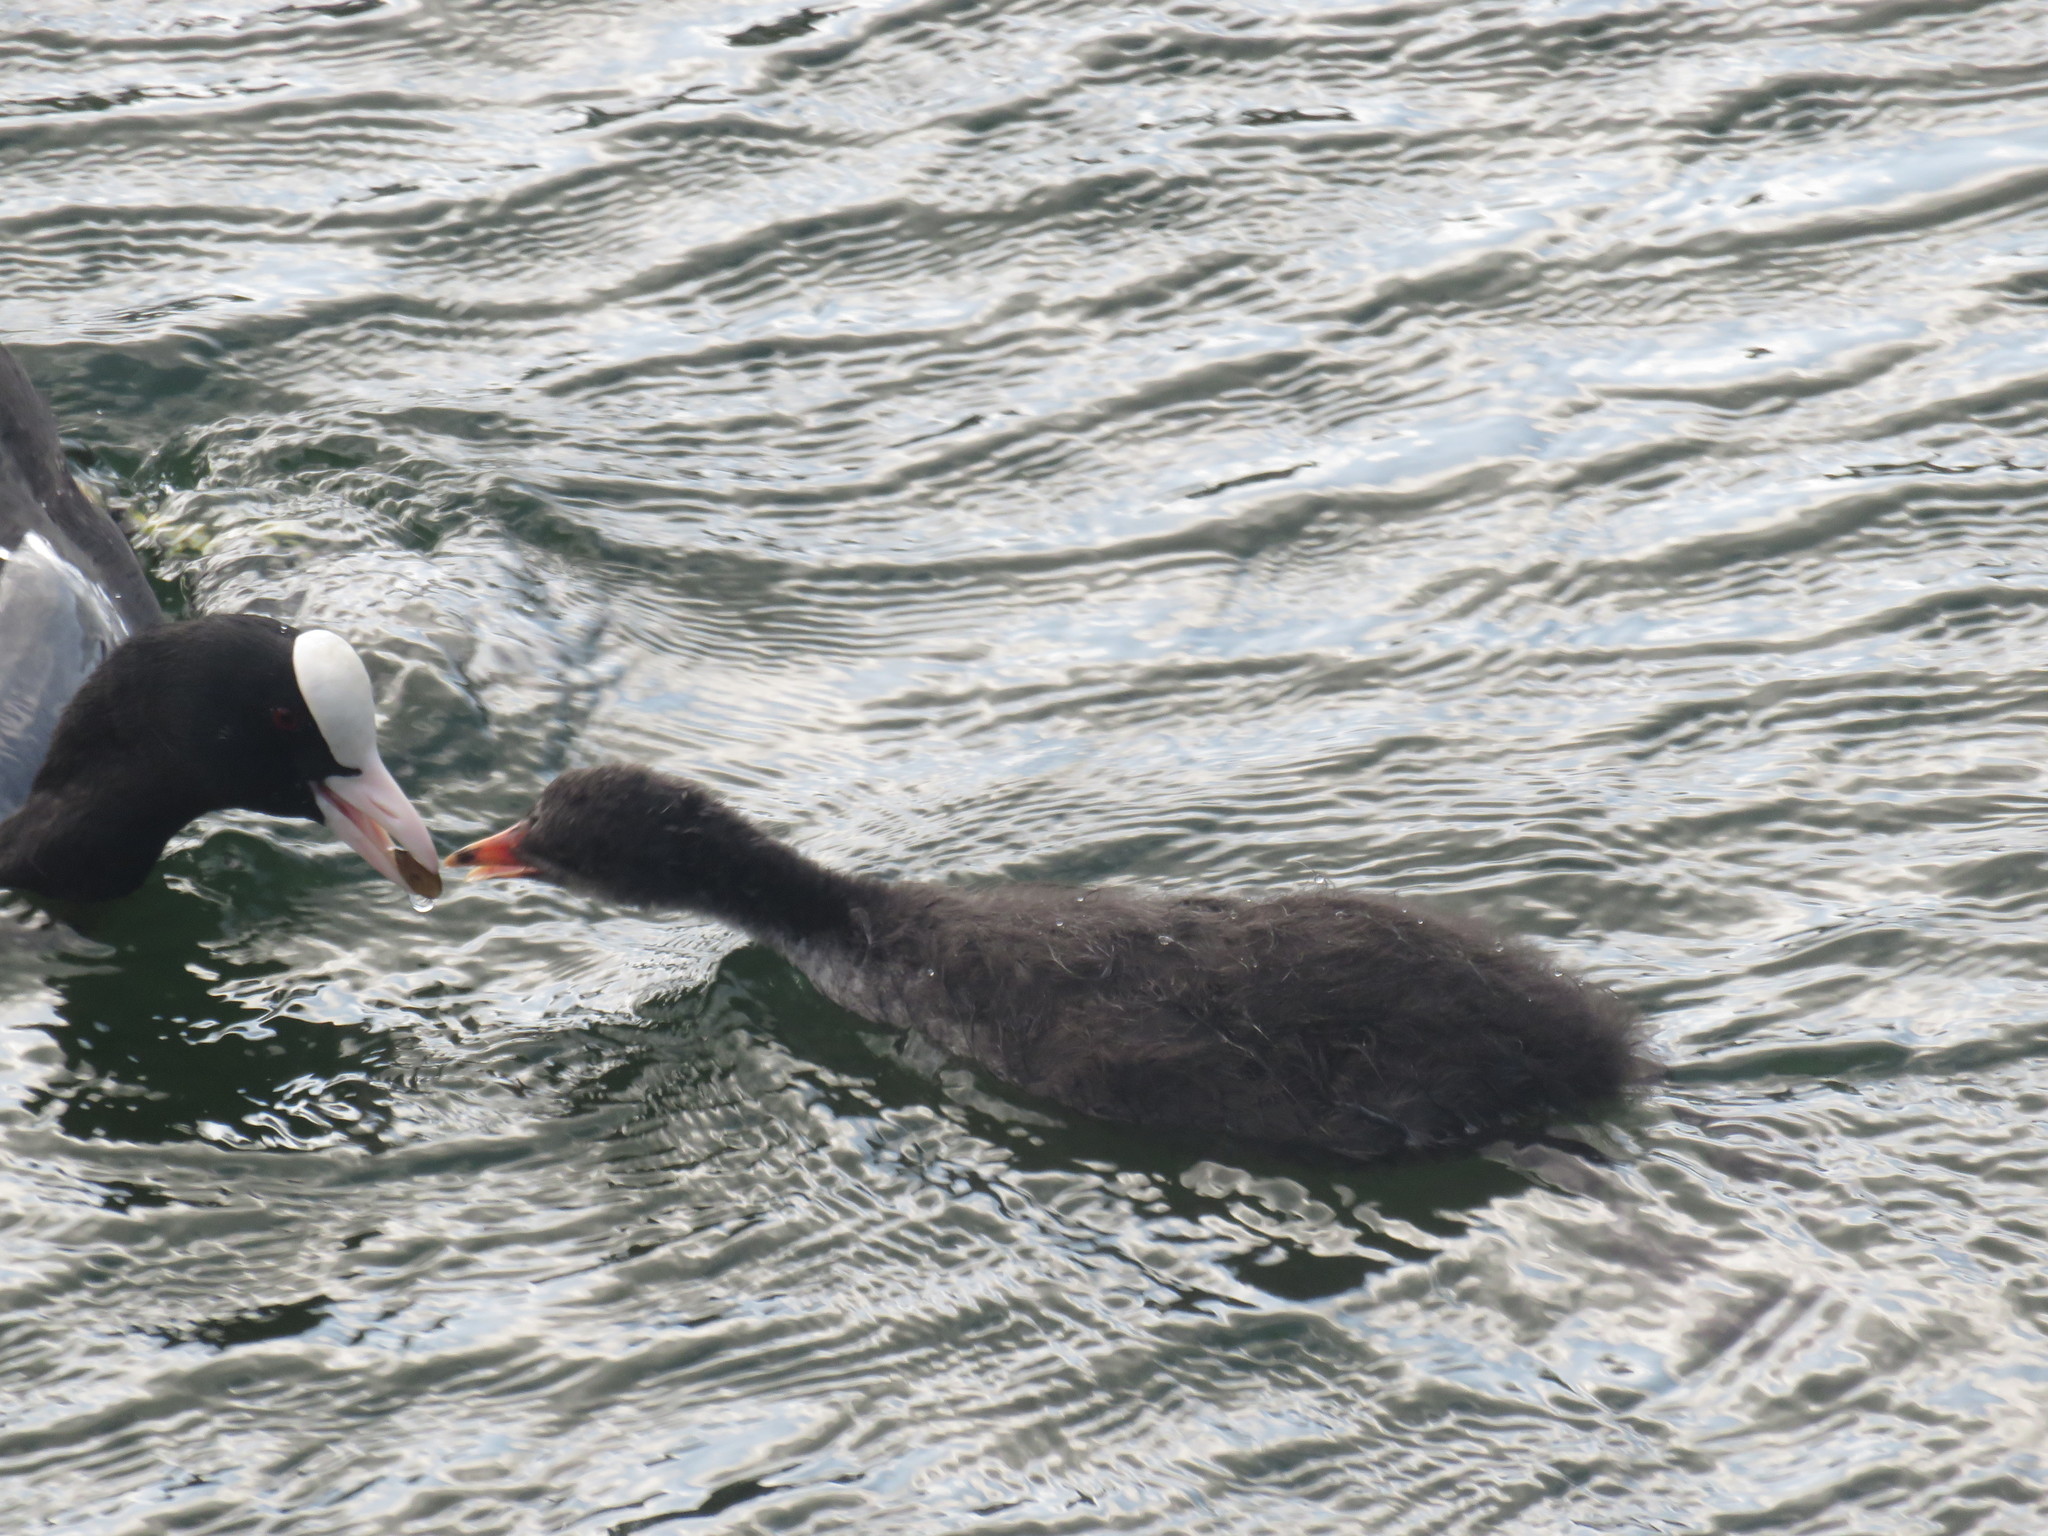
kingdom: Animalia
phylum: Chordata
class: Aves
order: Gruiformes
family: Rallidae
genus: Fulica
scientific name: Fulica atra
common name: Eurasian coot
